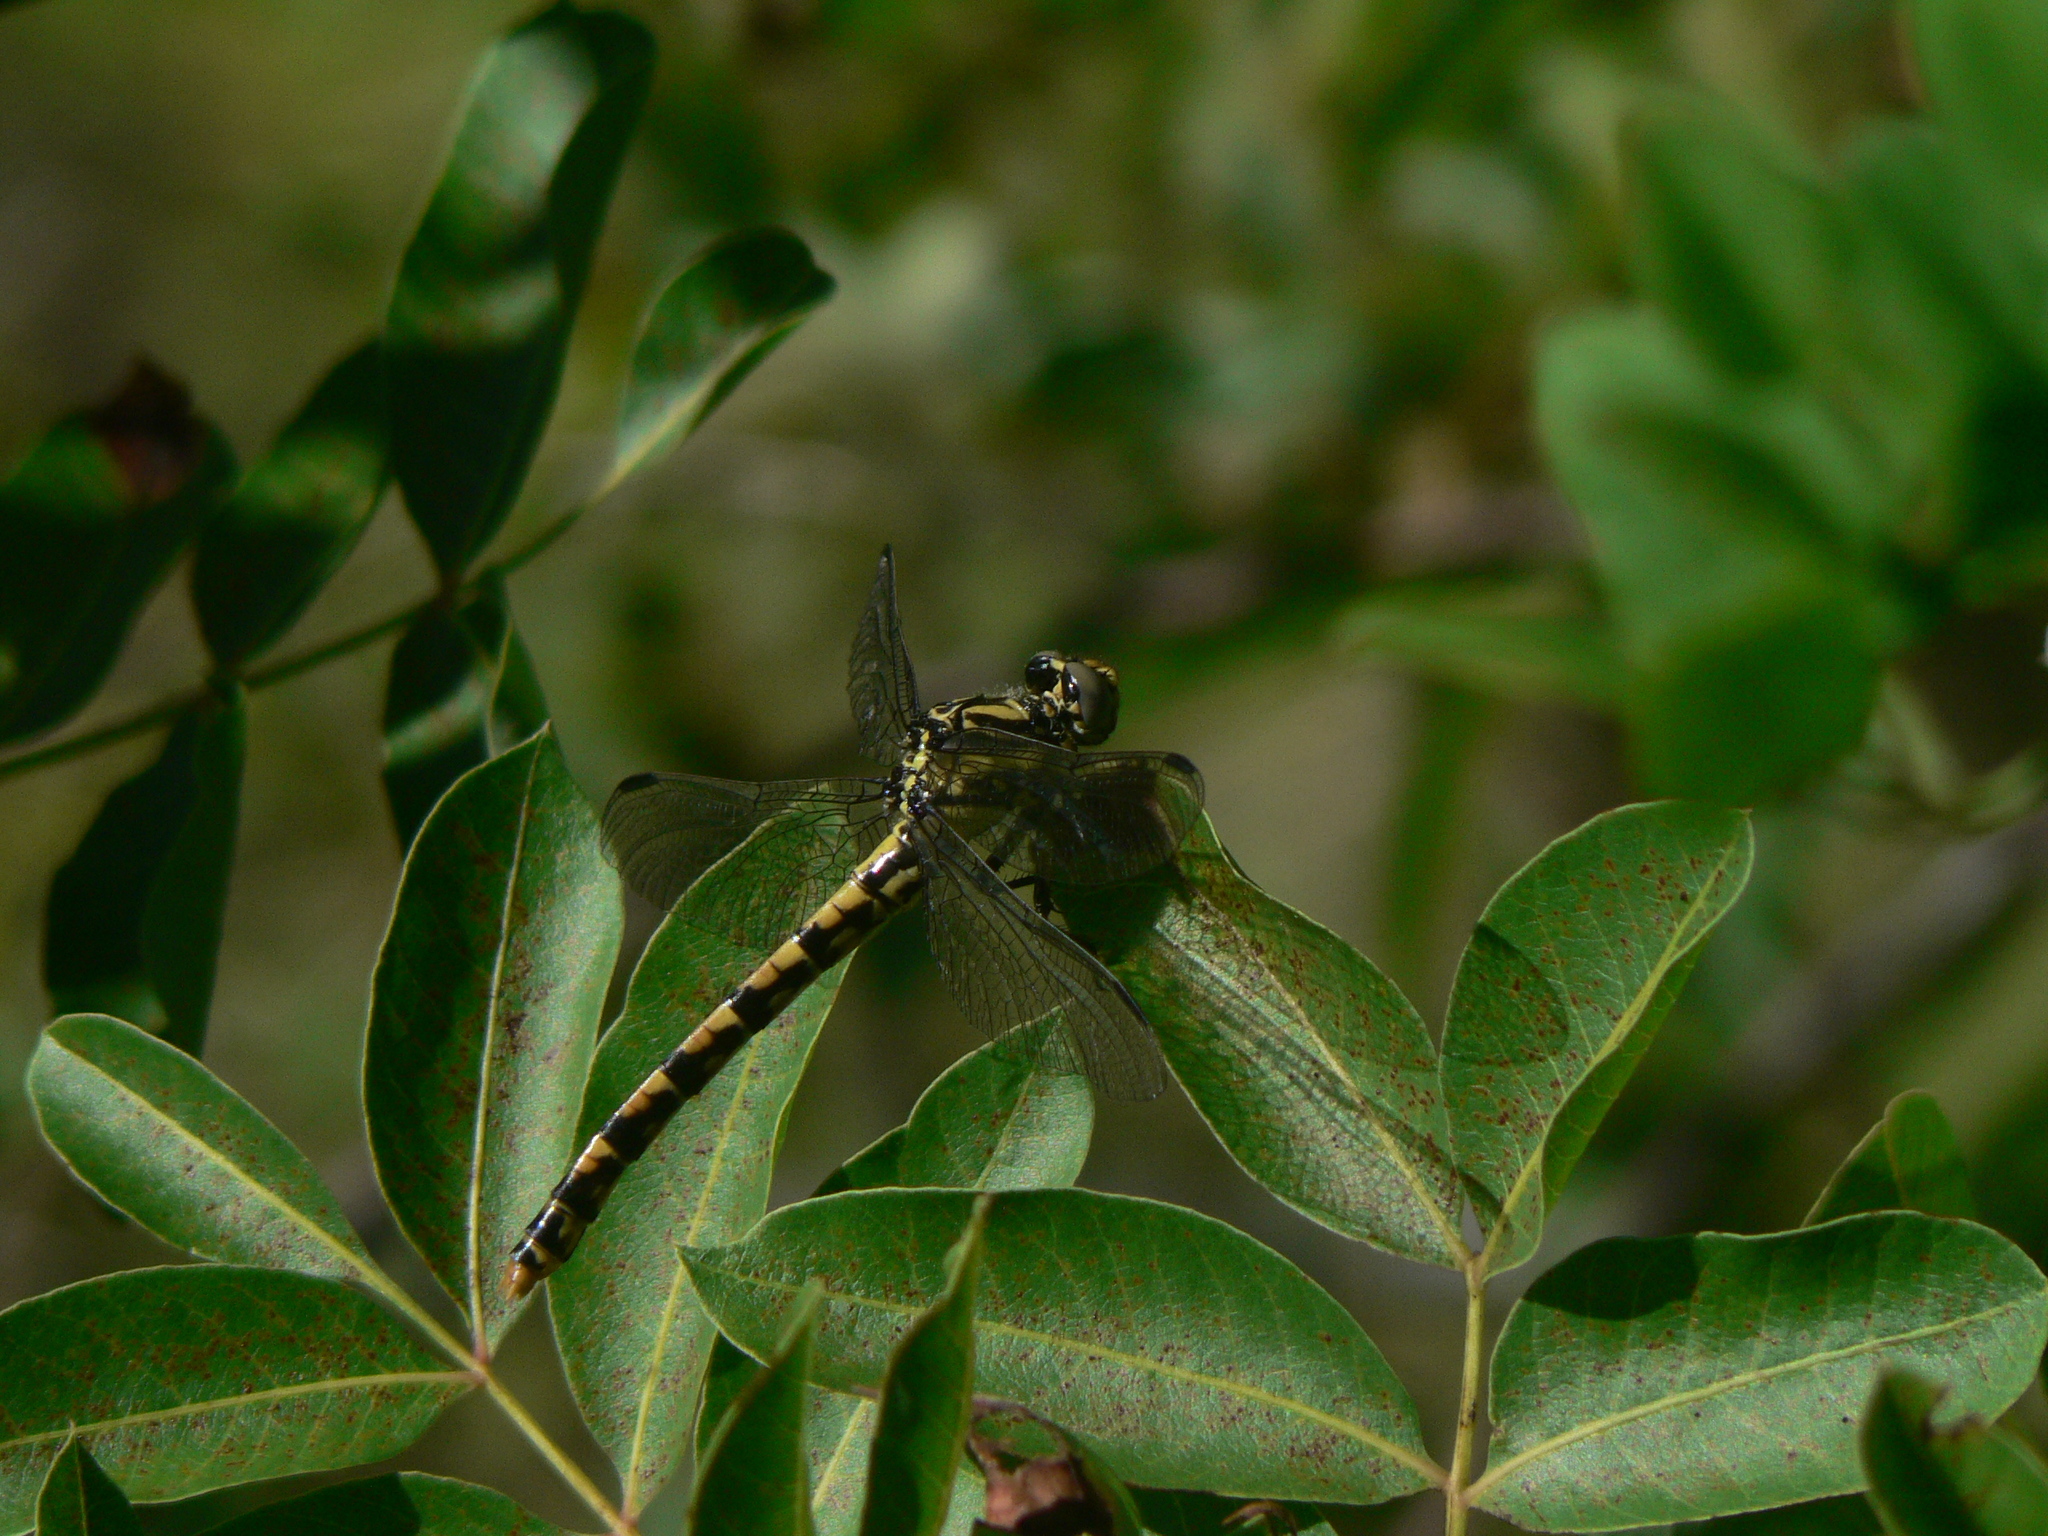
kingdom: Animalia
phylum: Arthropoda
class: Insecta
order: Odonata
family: Gomphidae
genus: Onychogomphus
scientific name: Onychogomphus forcipatus
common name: Small pincertail
